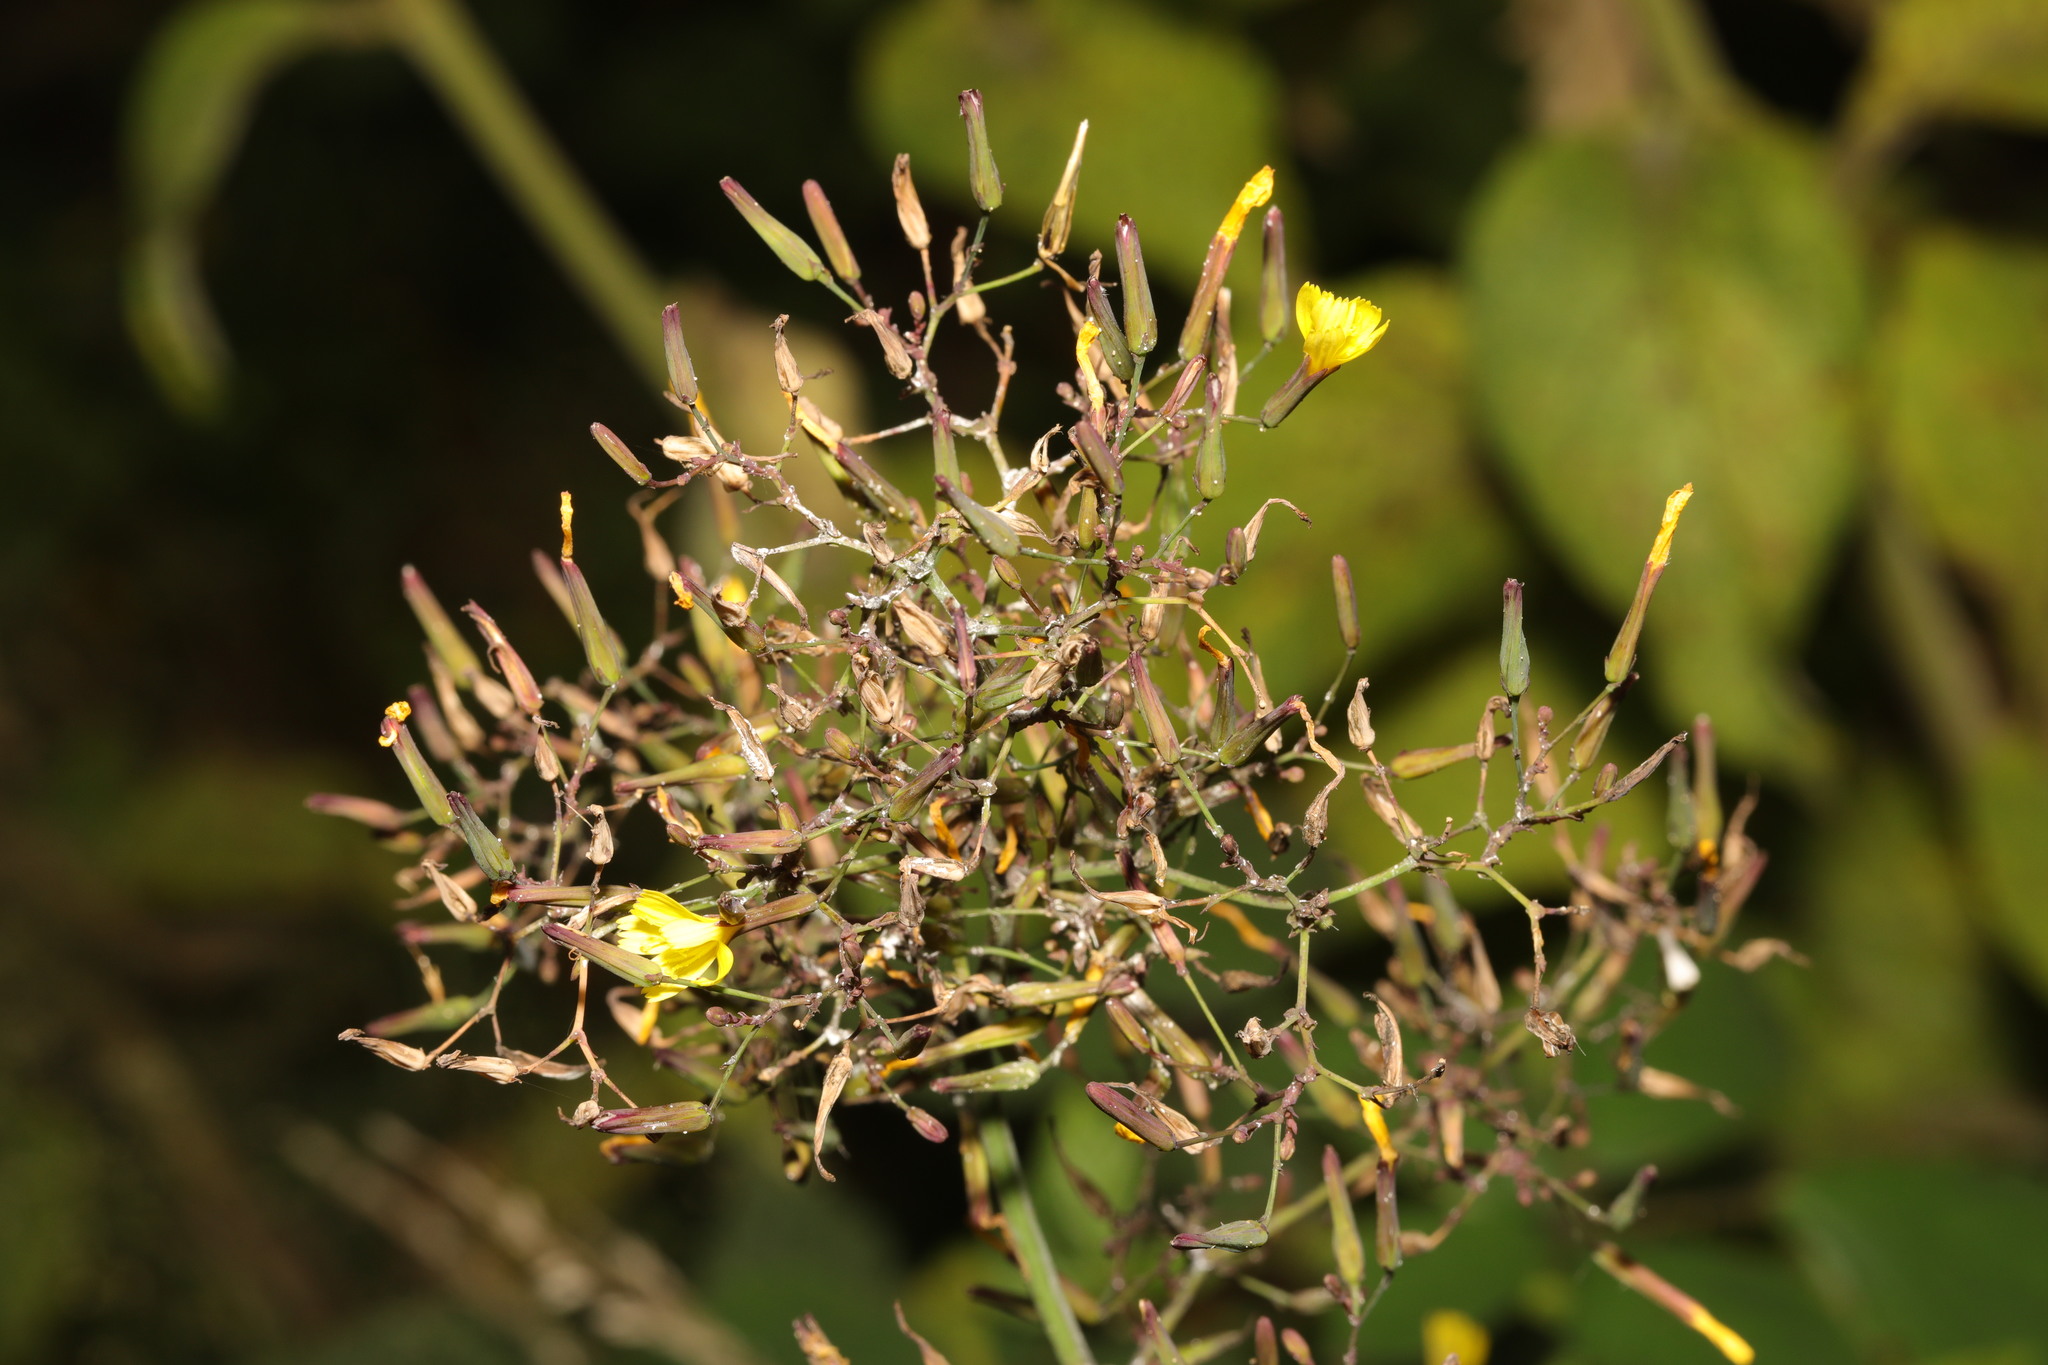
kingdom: Plantae
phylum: Tracheophyta
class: Magnoliopsida
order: Asterales
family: Asteraceae
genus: Mycelis
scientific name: Mycelis muralis
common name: Wall lettuce
